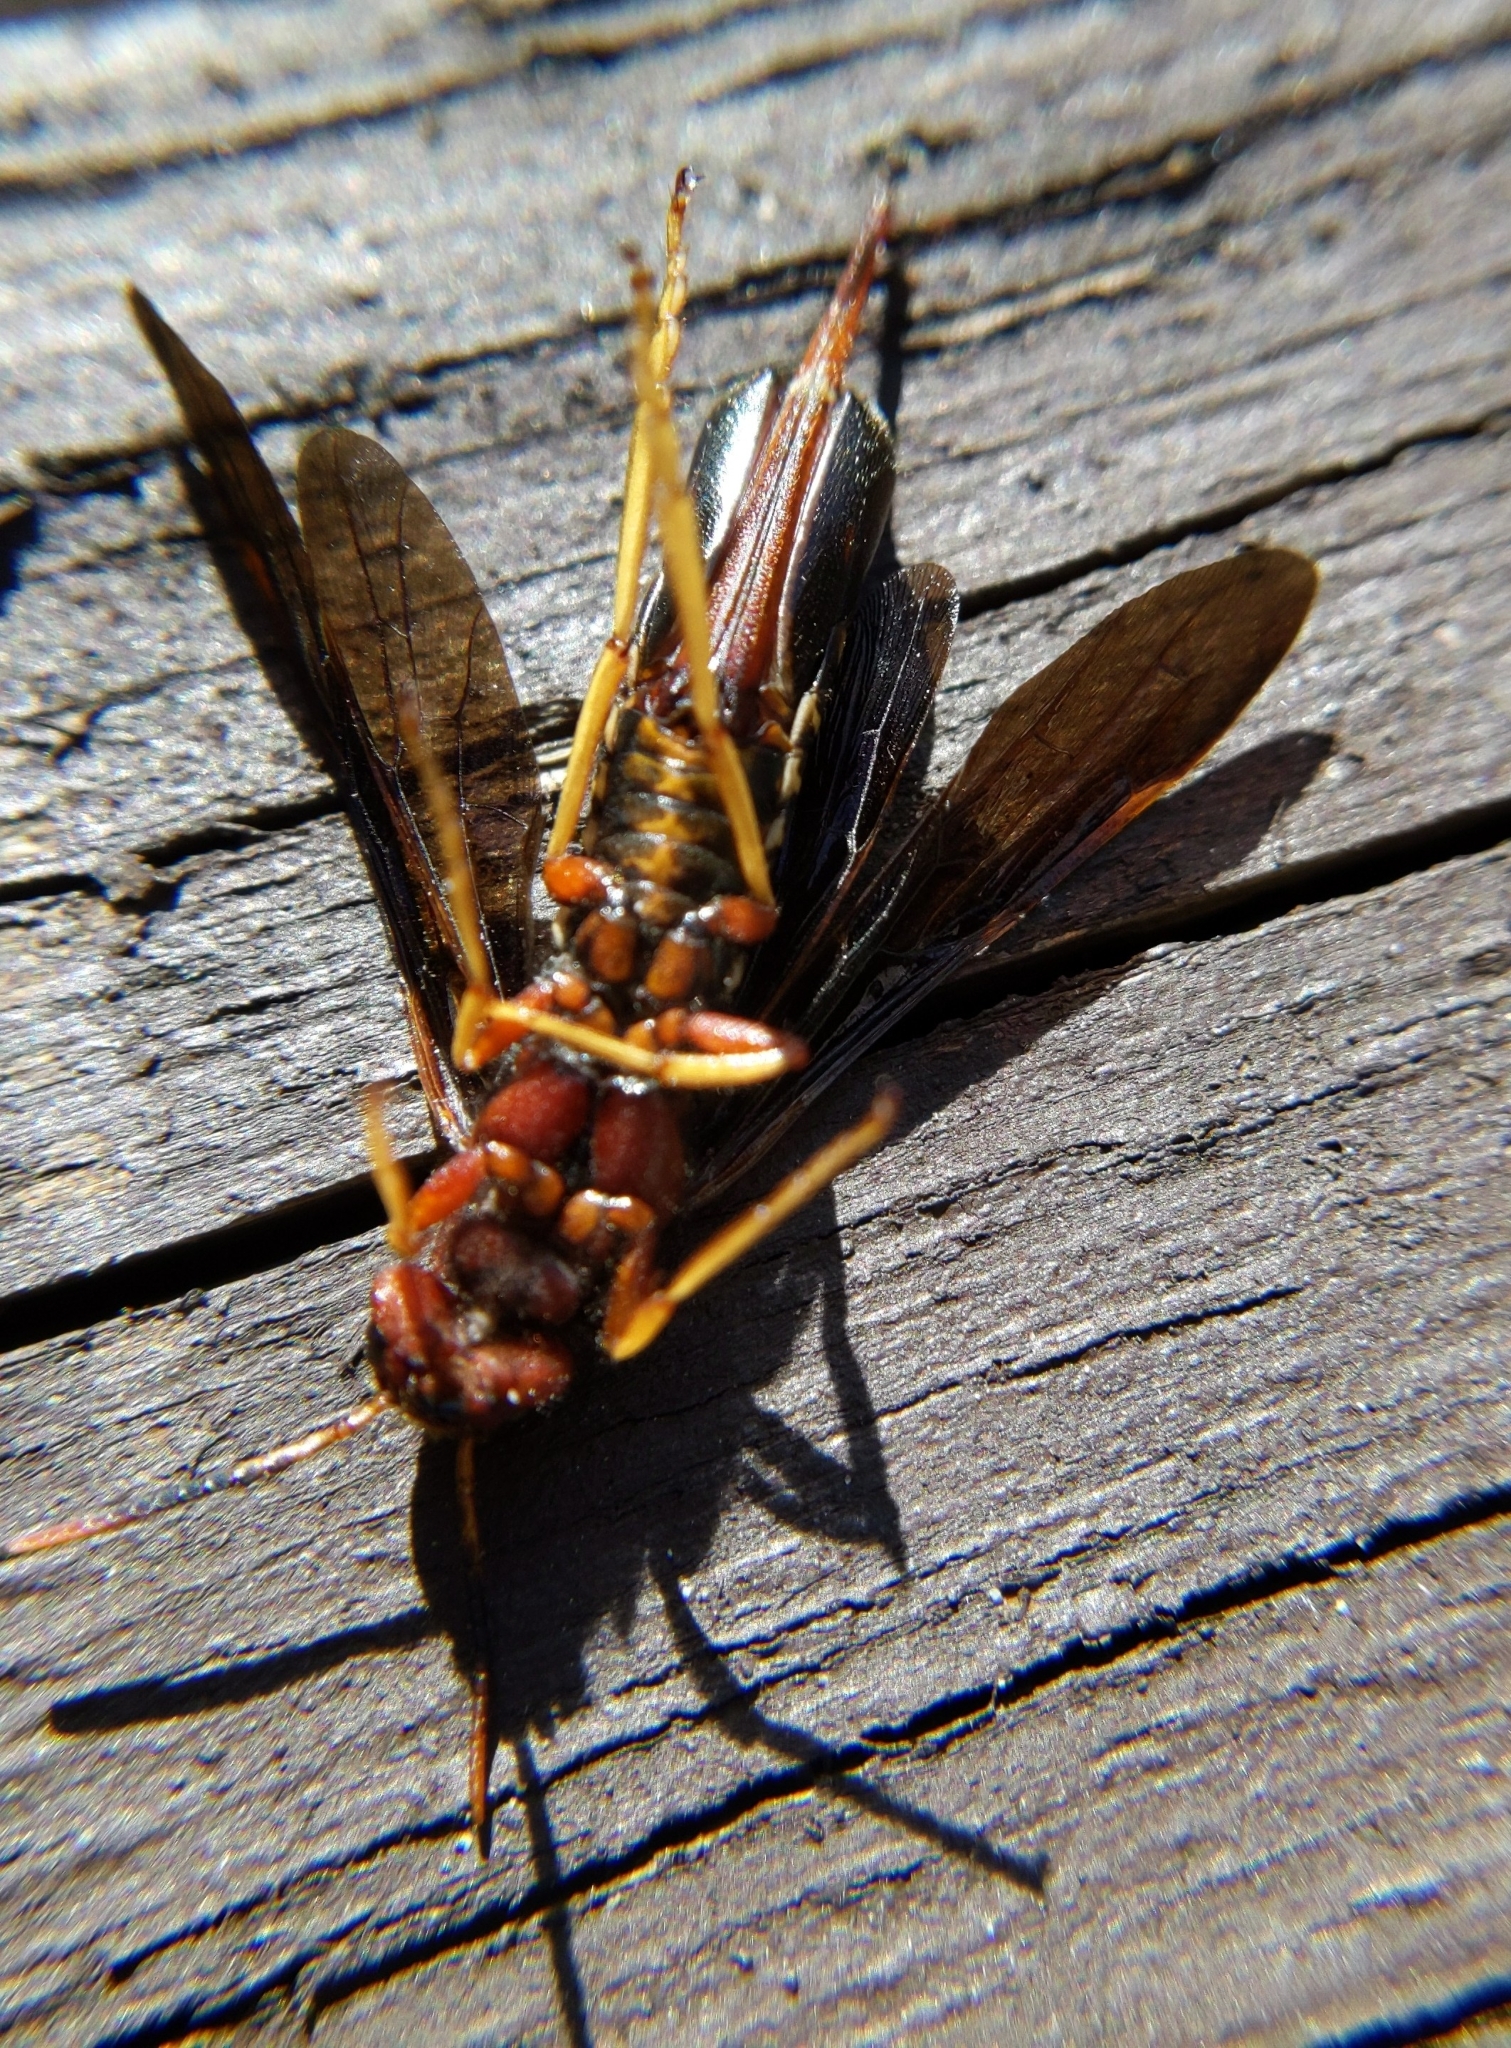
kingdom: Animalia
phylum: Arthropoda
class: Insecta
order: Hymenoptera
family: Siricidae
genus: Tremex
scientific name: Tremex columba
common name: Wasp
